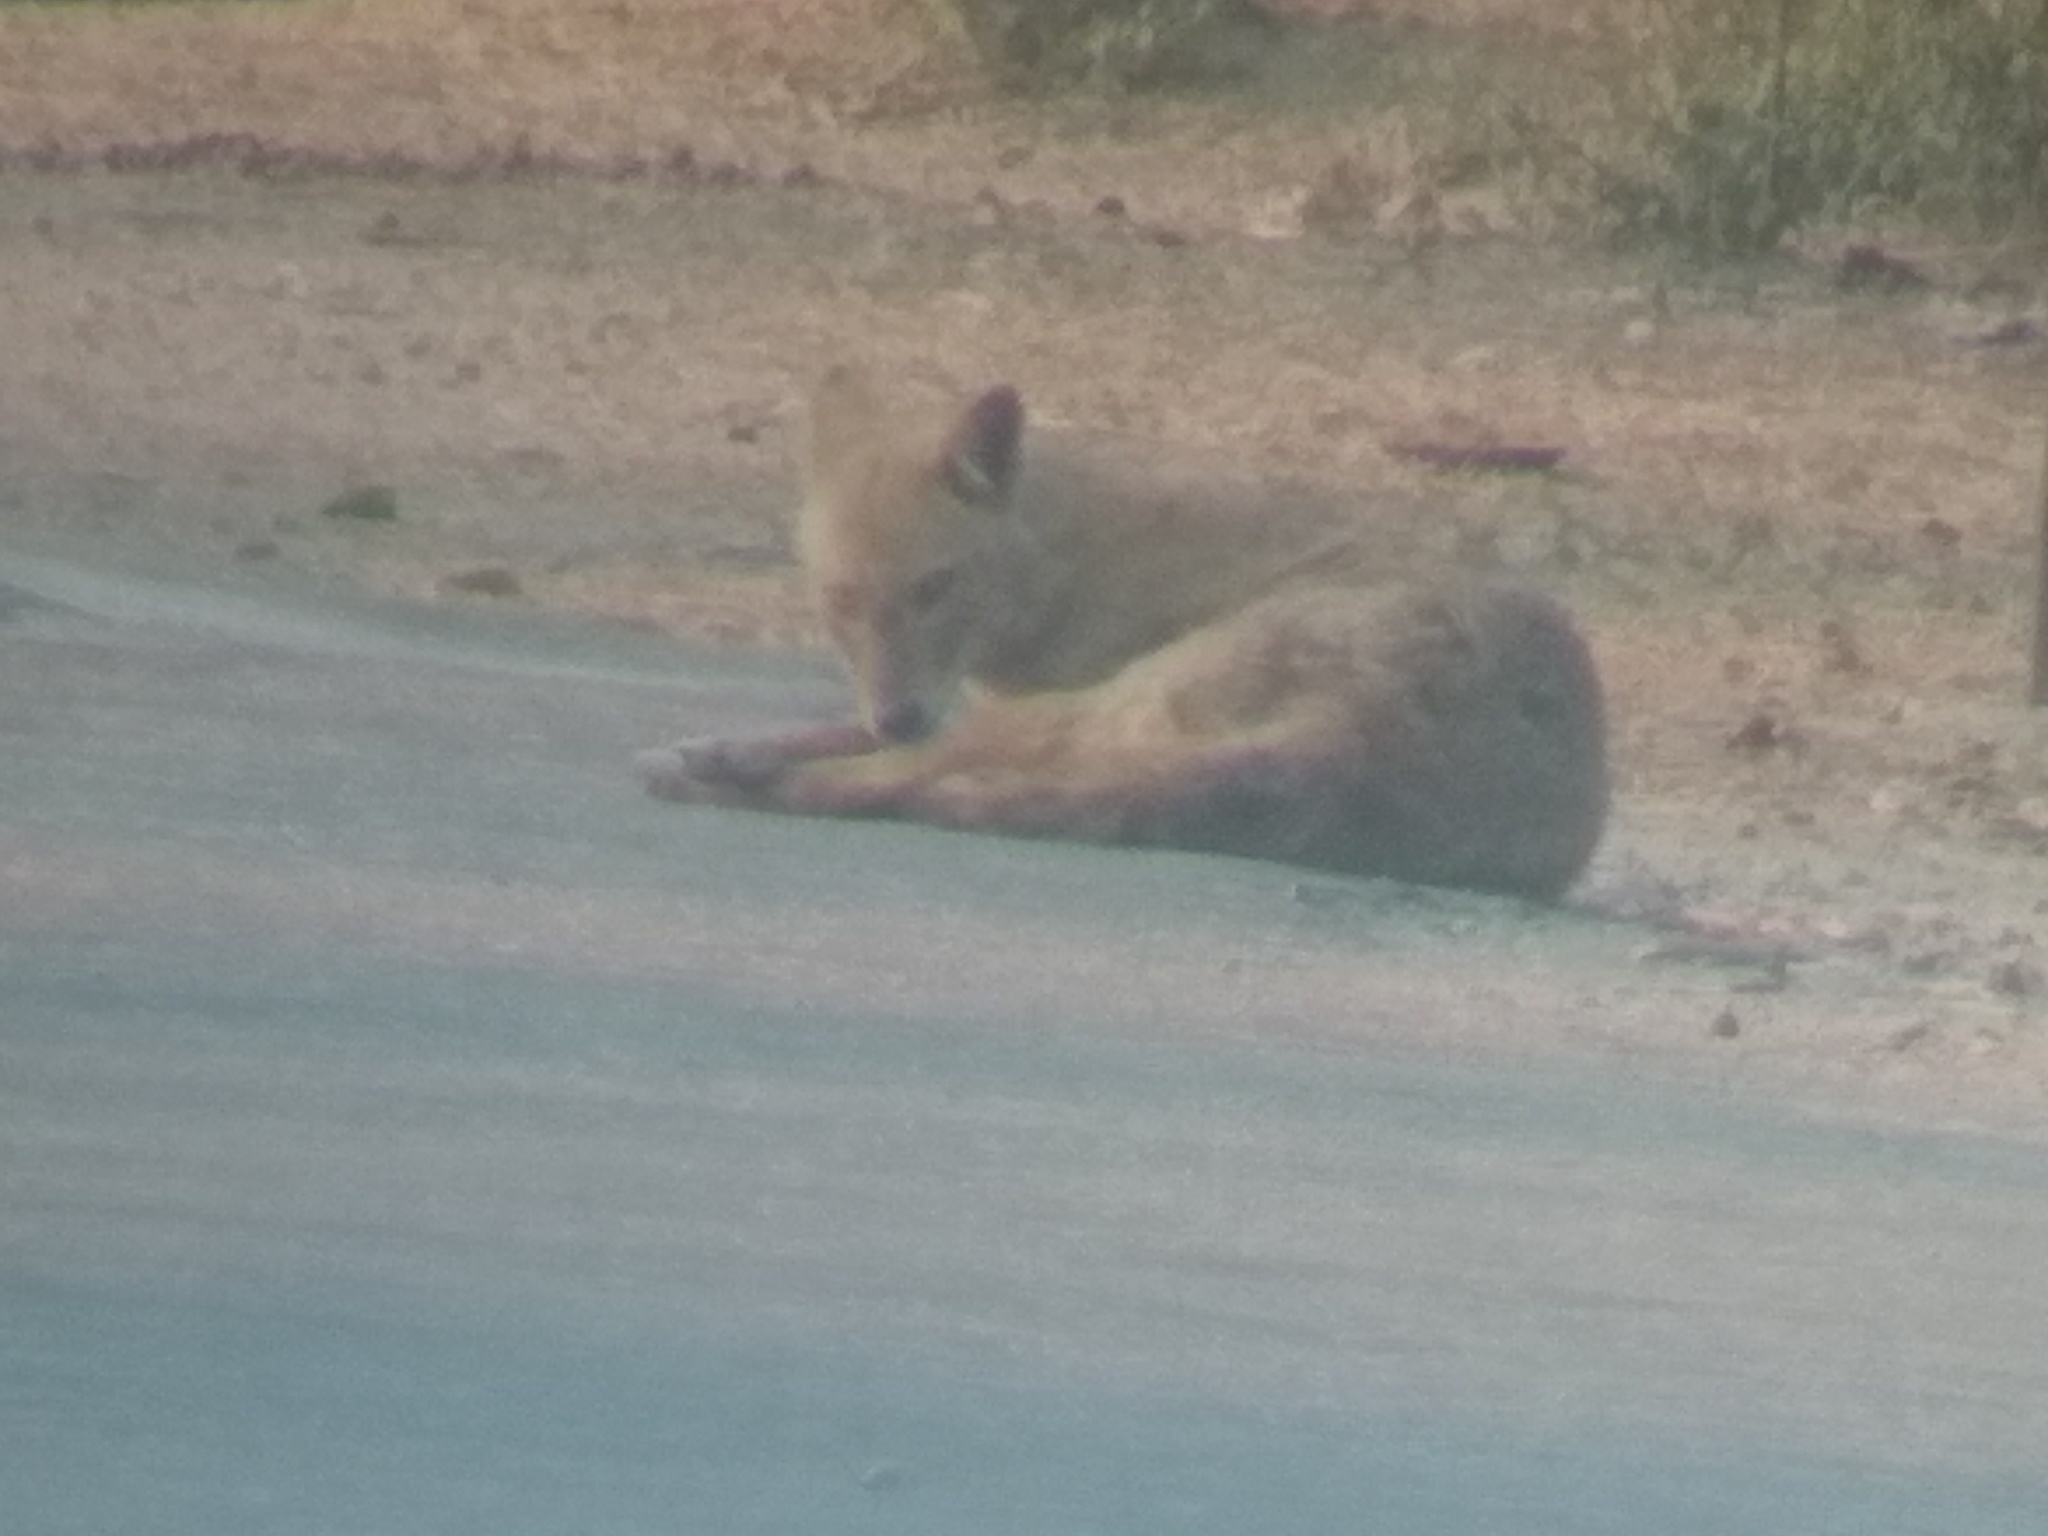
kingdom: Animalia
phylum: Chordata
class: Mammalia
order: Carnivora
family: Canidae
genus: Canis
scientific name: Canis aureus
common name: Golden jackal
